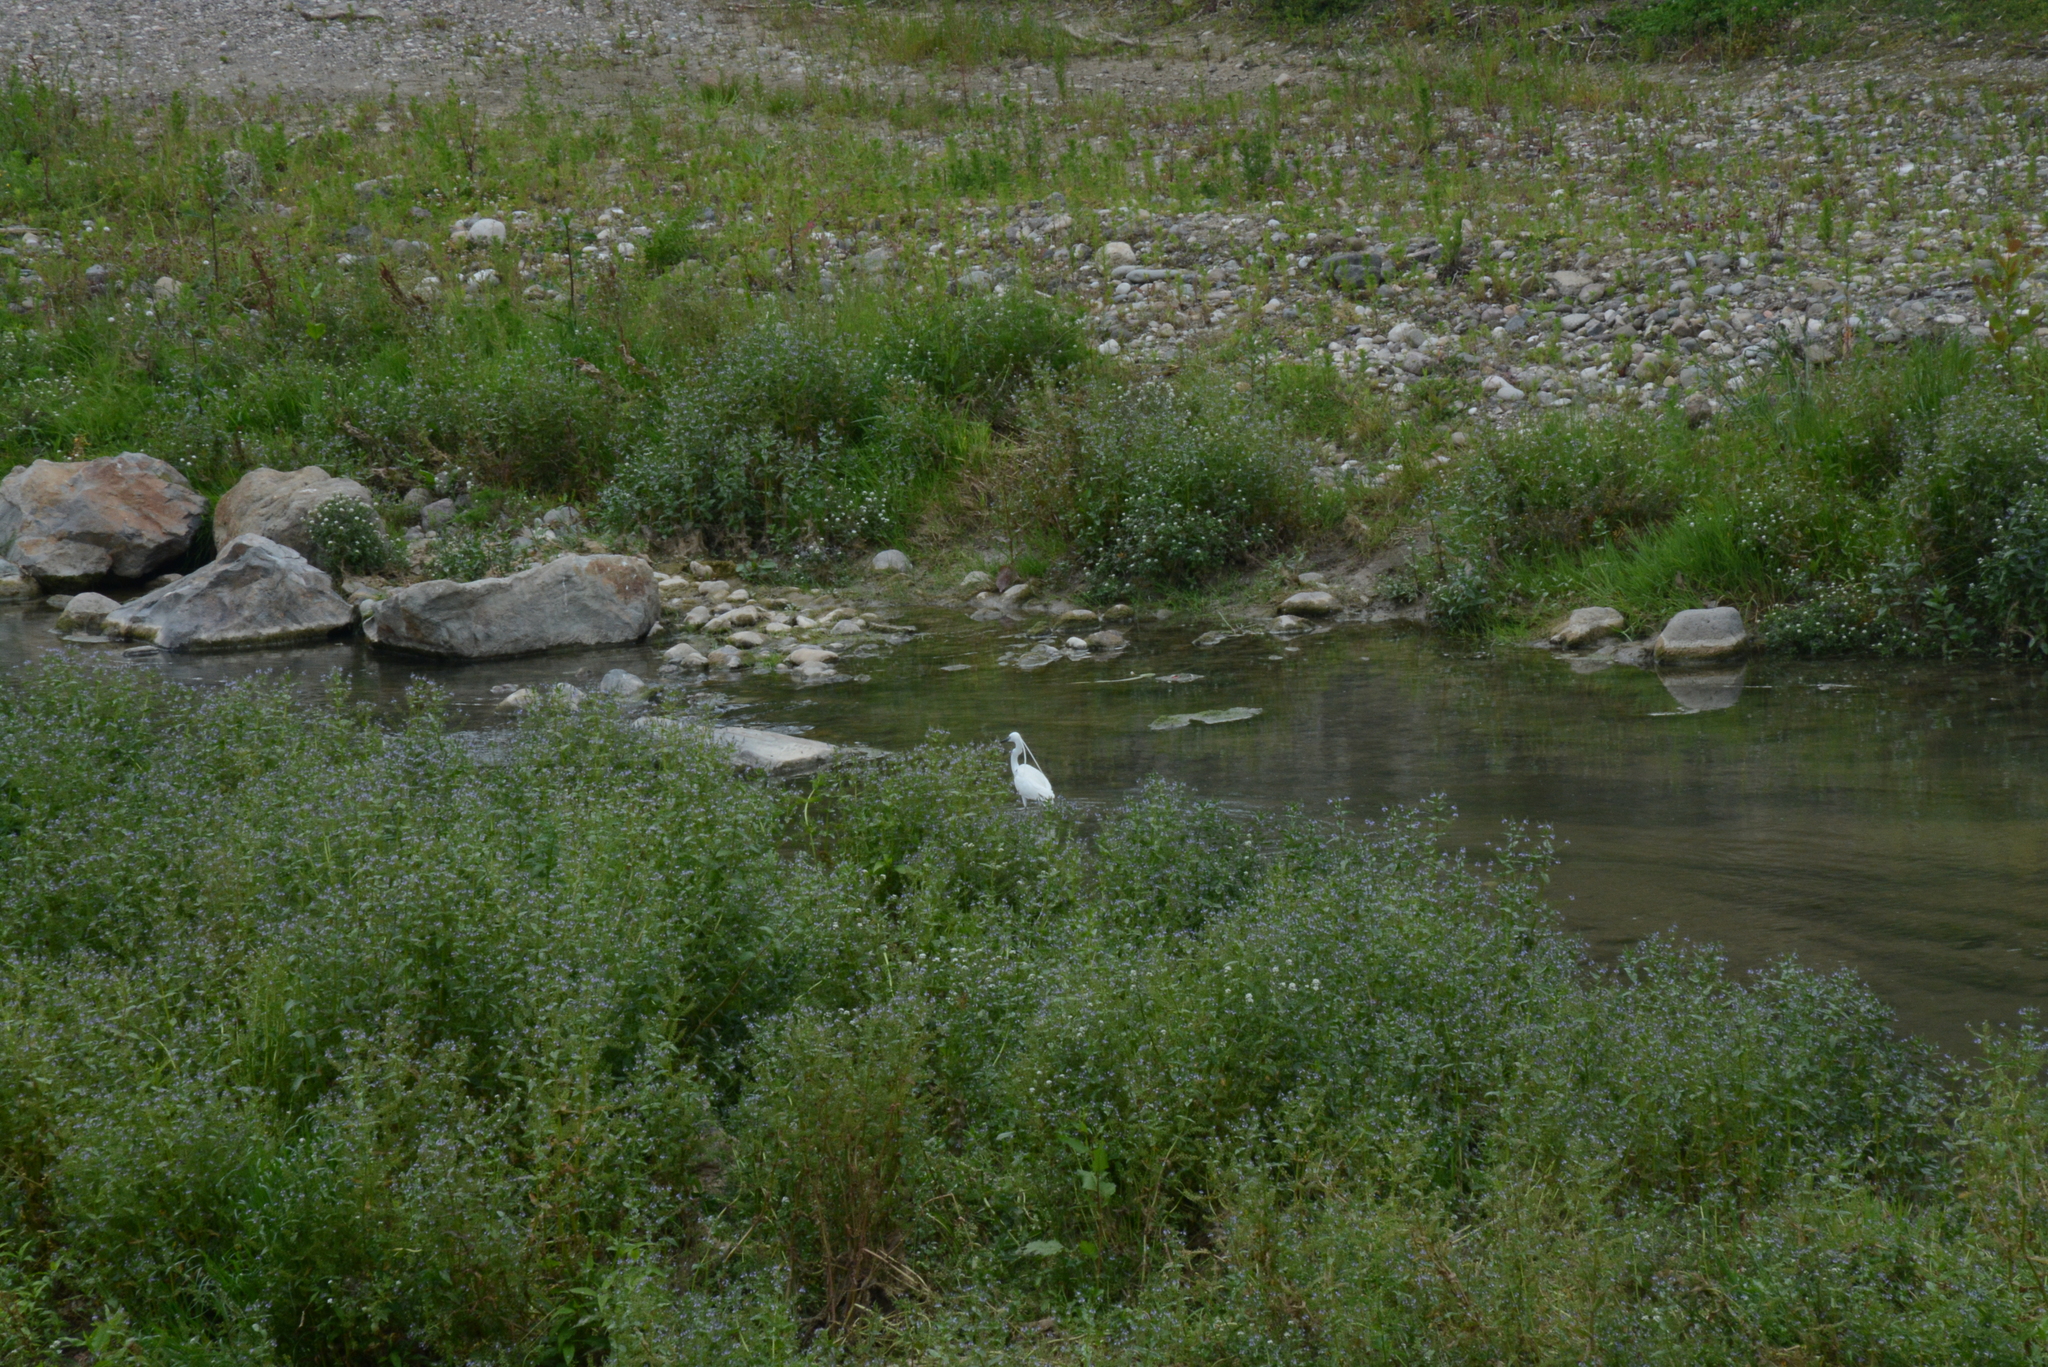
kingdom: Animalia
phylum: Chordata
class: Aves
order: Pelecaniformes
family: Ardeidae
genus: Egretta
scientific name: Egretta garzetta
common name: Little egret
